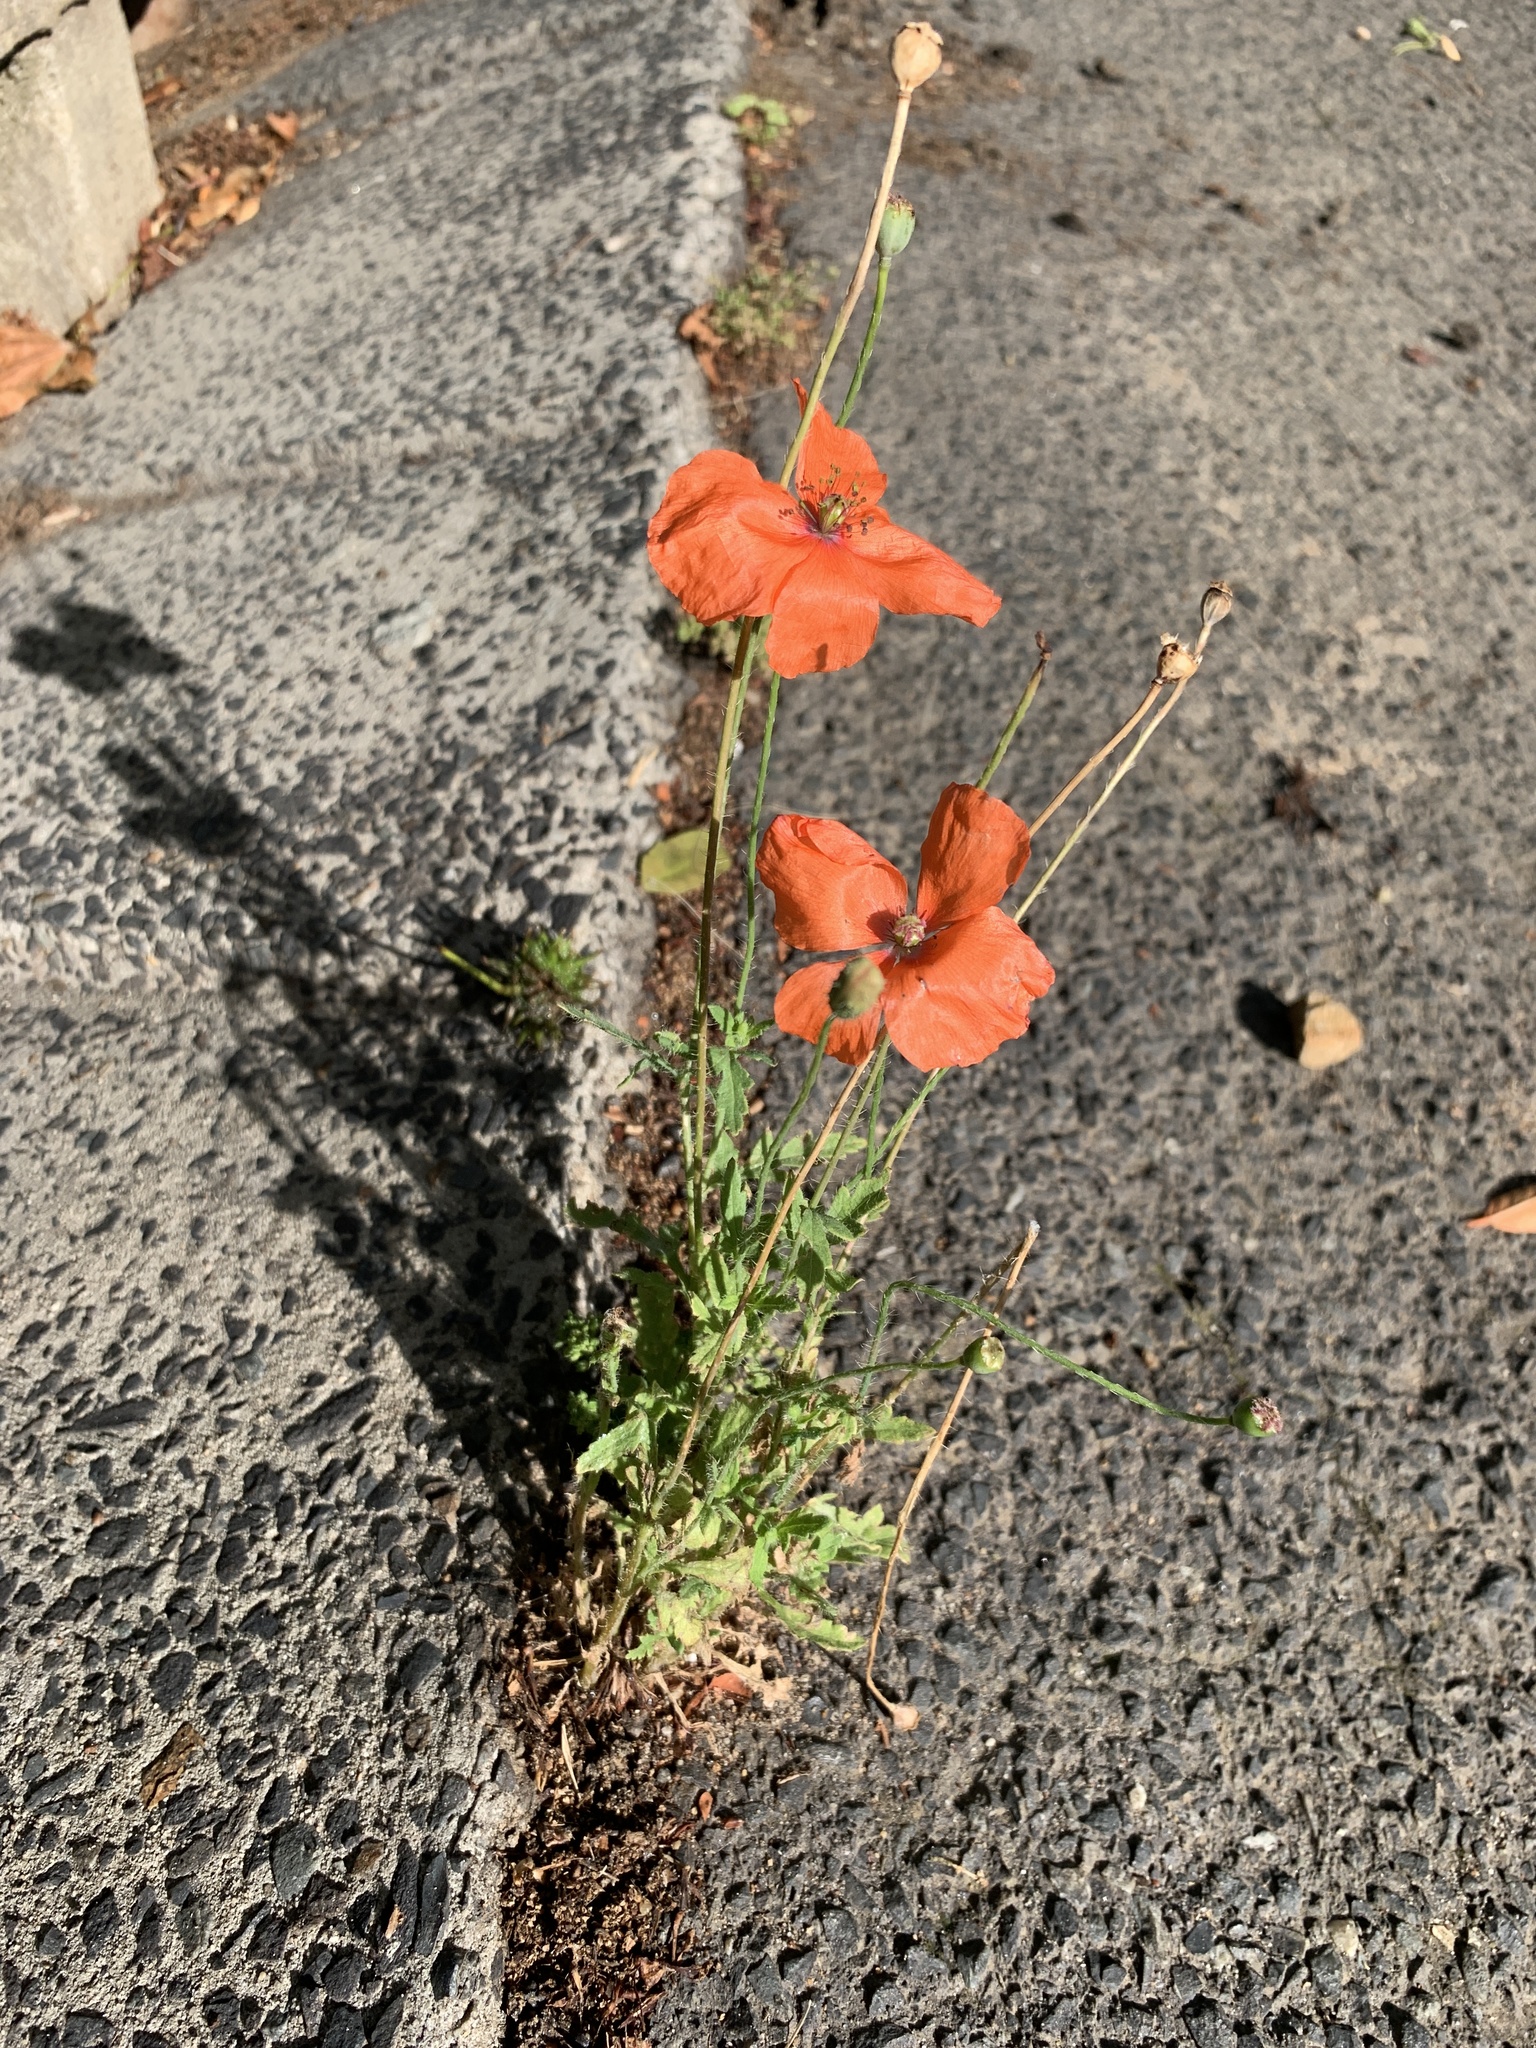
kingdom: Plantae
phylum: Tracheophyta
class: Magnoliopsida
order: Ranunculales
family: Papaveraceae
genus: Papaver
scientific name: Papaver rhoeas
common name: Corn poppy
